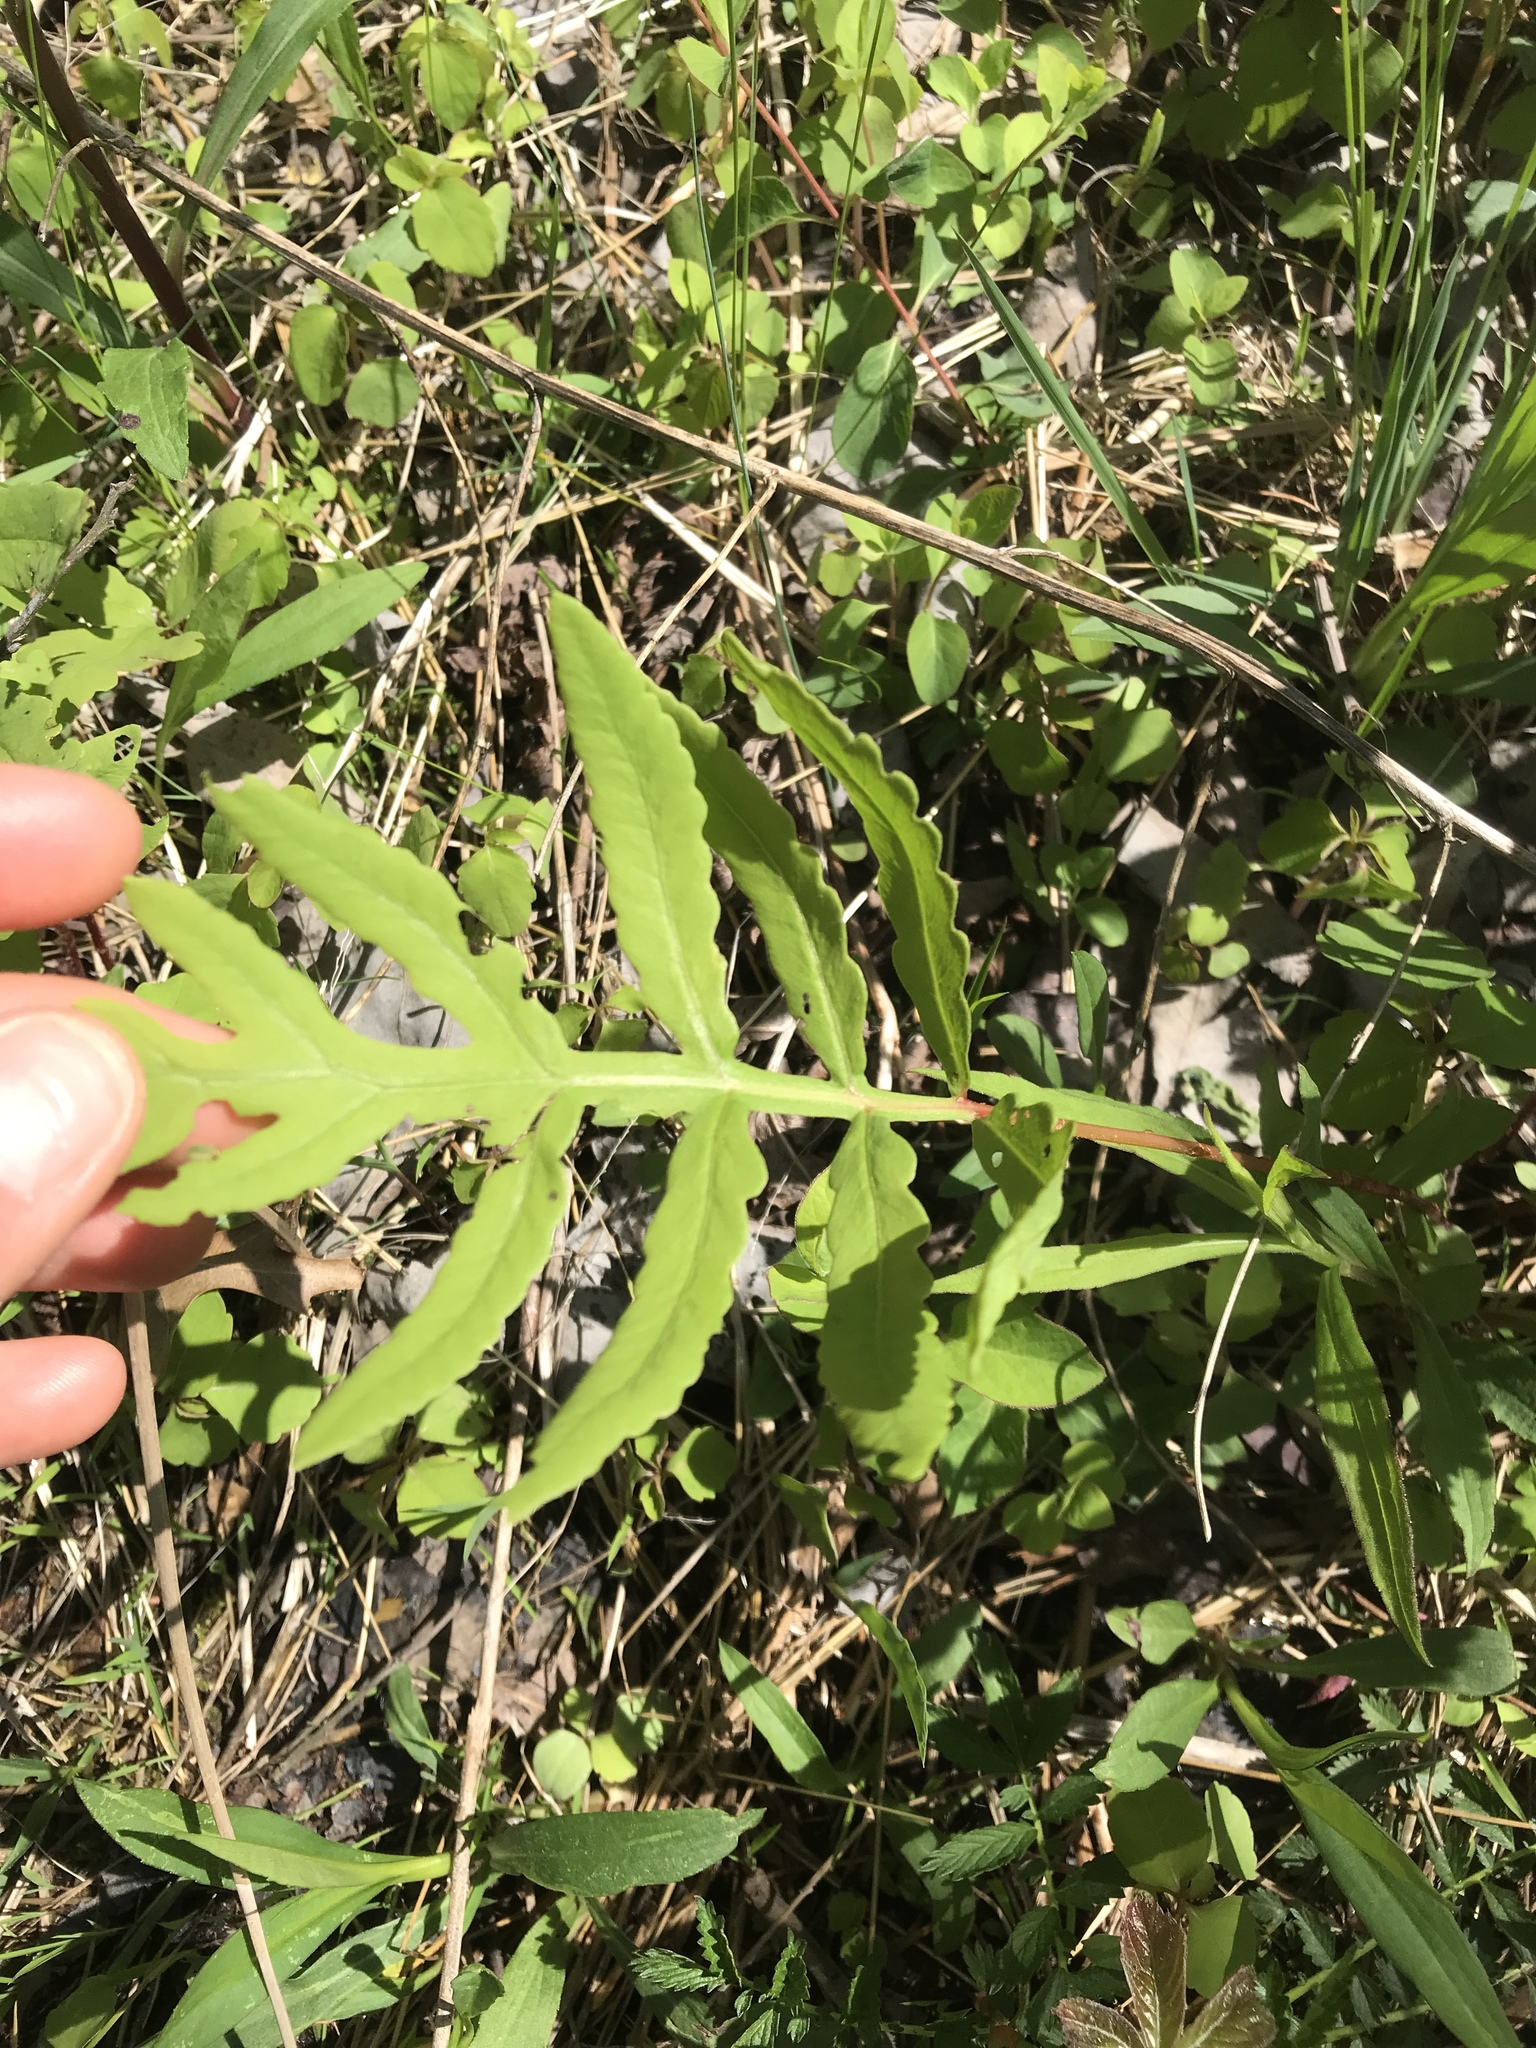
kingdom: Plantae
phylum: Tracheophyta
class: Polypodiopsida
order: Polypodiales
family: Onocleaceae
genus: Onoclea
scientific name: Onoclea sensibilis
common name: Sensitive fern
